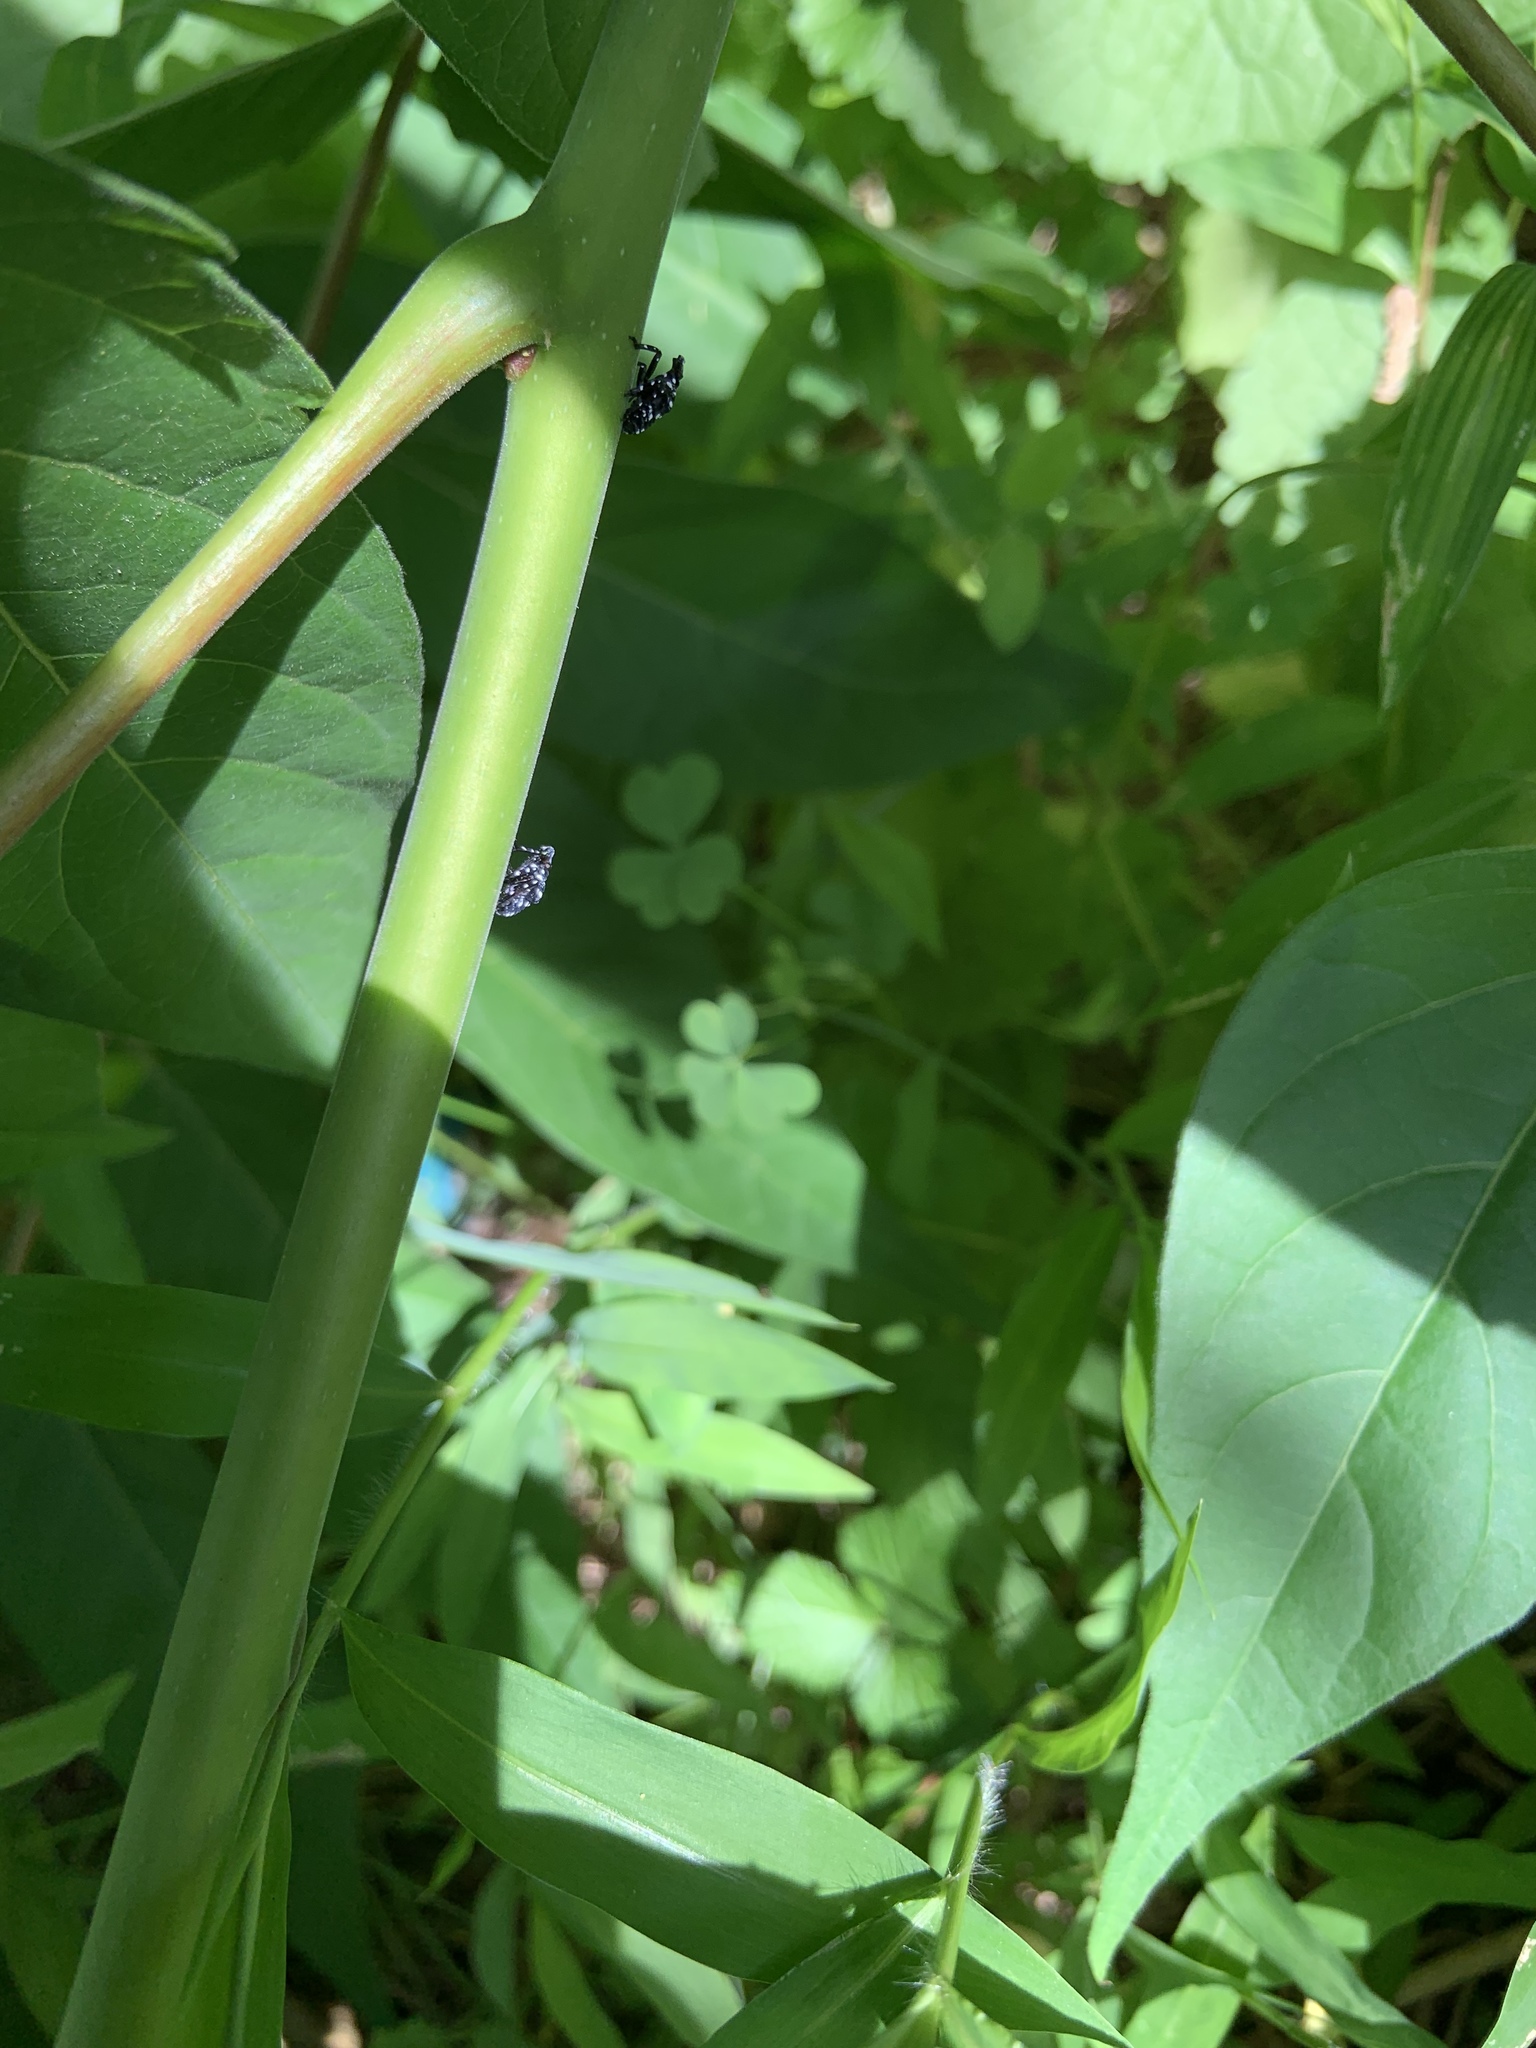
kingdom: Animalia
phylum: Arthropoda
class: Insecta
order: Hemiptera
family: Fulgoridae
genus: Lycorma
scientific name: Lycorma delicatula
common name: Spotted lanternfly
